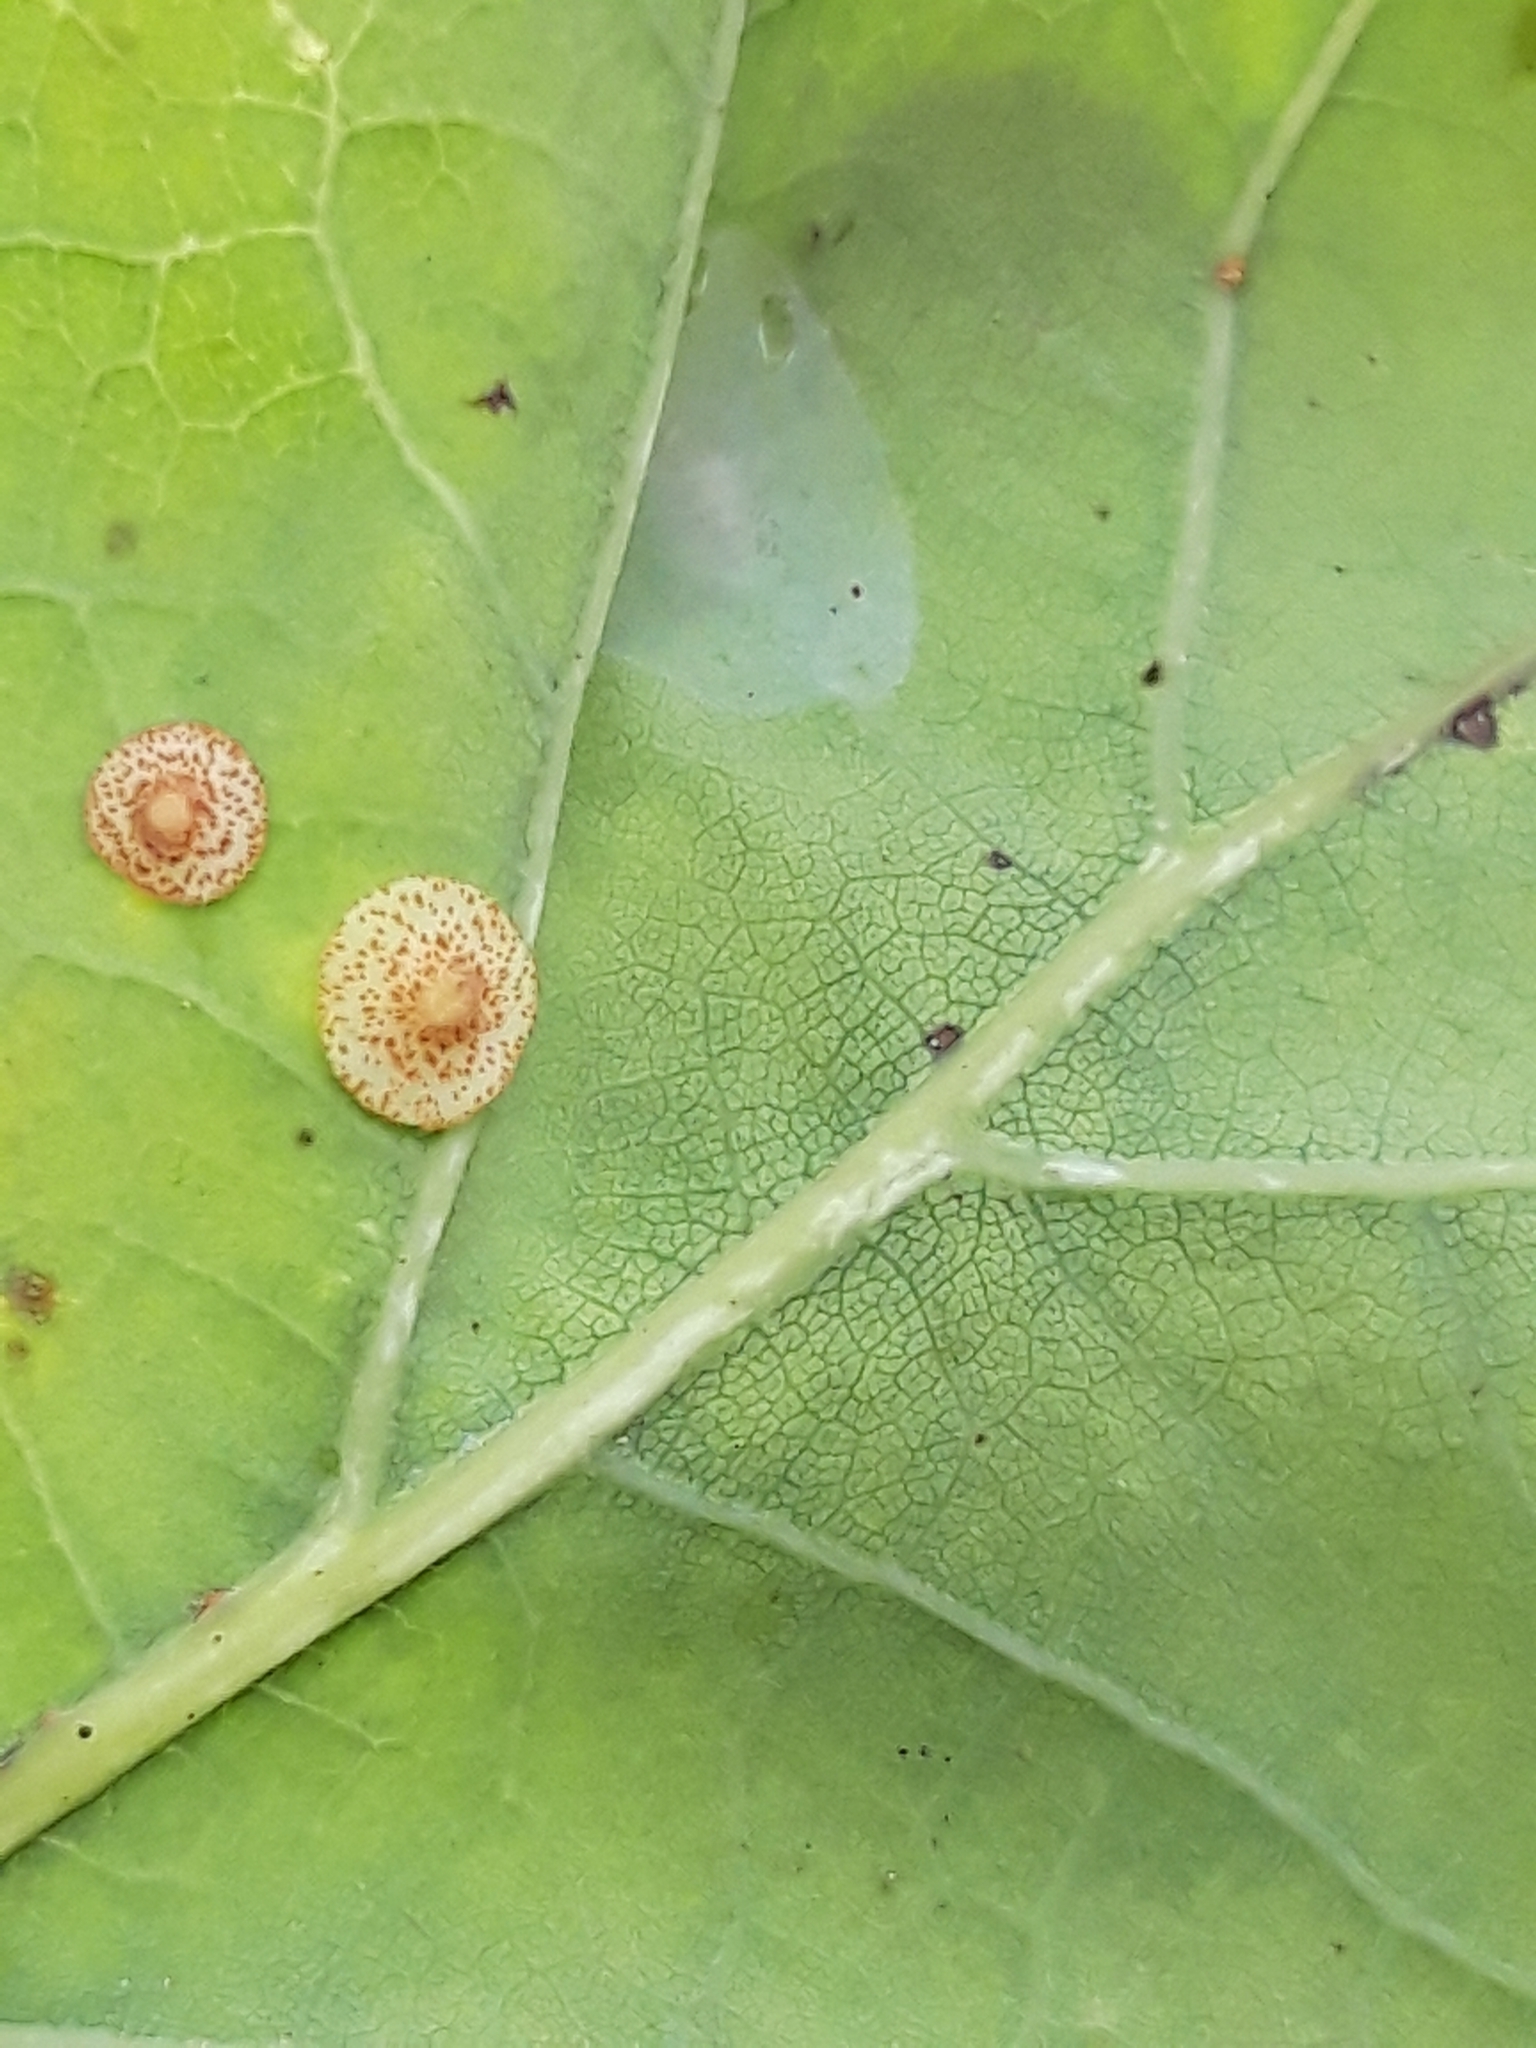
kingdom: Animalia
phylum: Arthropoda
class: Insecta
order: Hymenoptera
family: Cynipidae
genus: Neuroterus
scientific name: Neuroterus quercusbaccarum
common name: Common spangle gall
